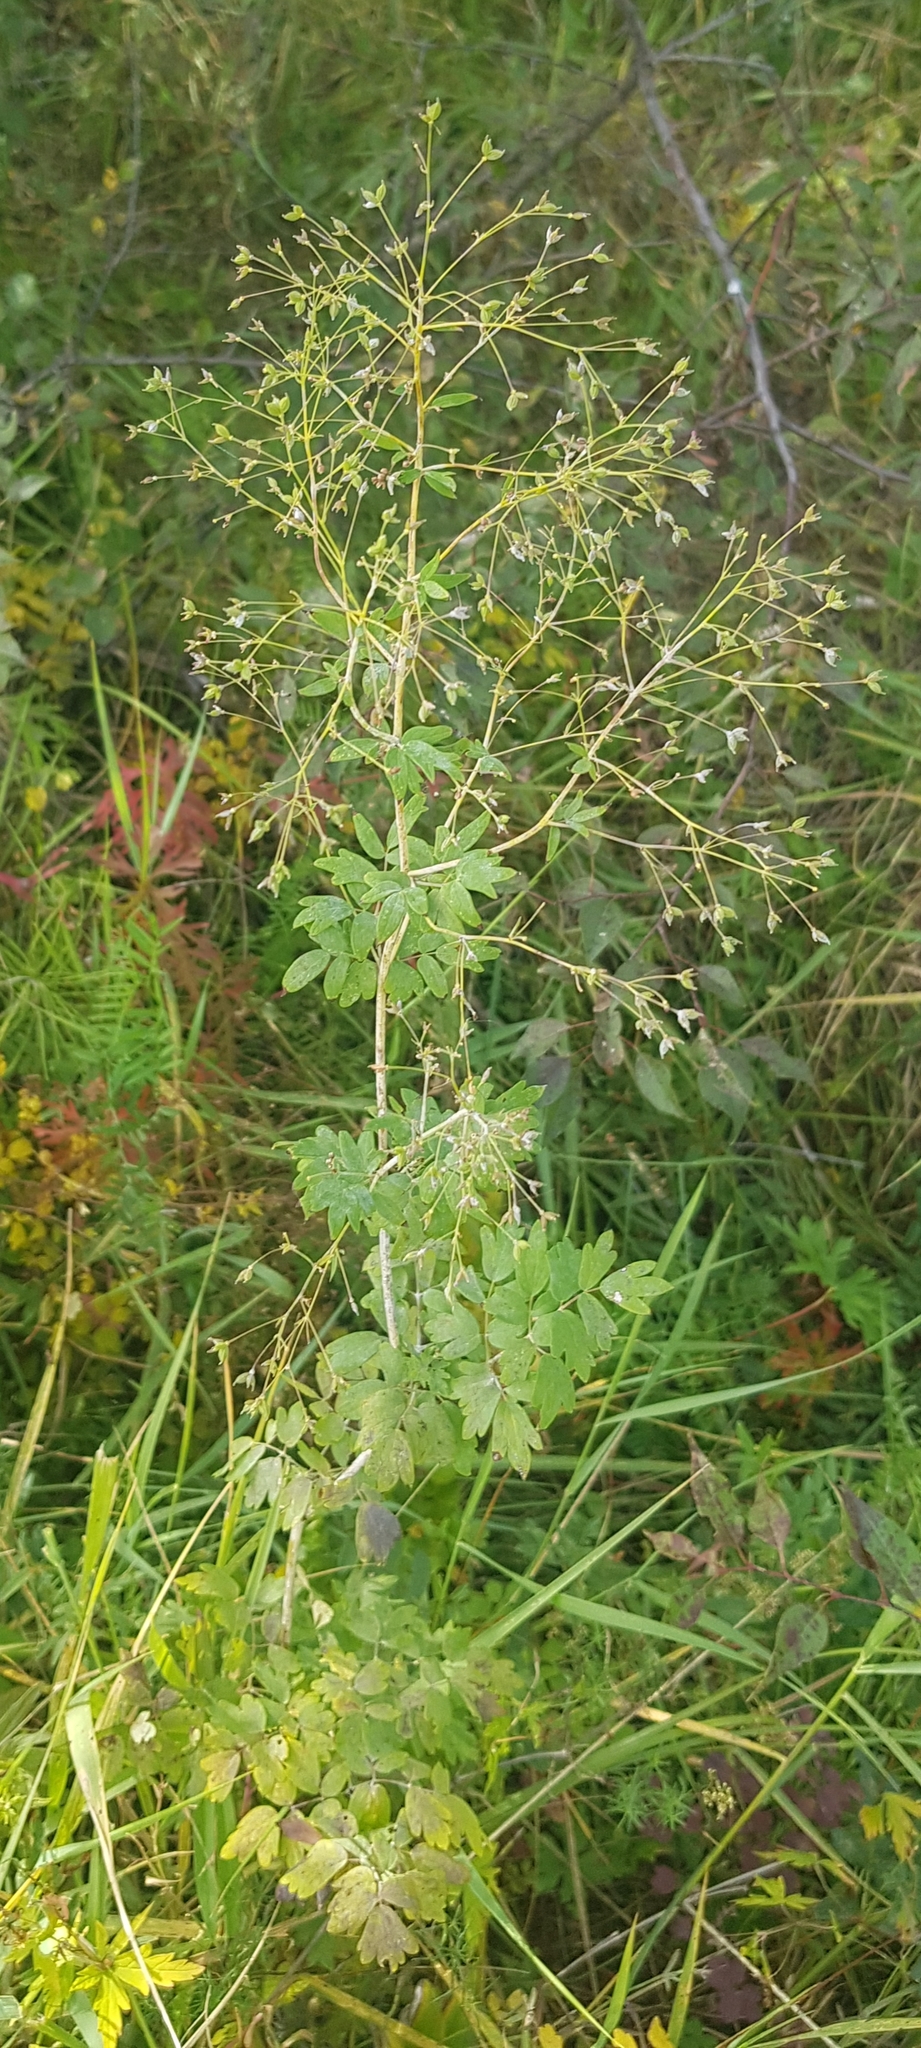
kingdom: Plantae
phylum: Tracheophyta
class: Magnoliopsida
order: Ranunculales
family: Ranunculaceae
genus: Thalictrum
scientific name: Thalictrum simplex
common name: Small meadow-rue
